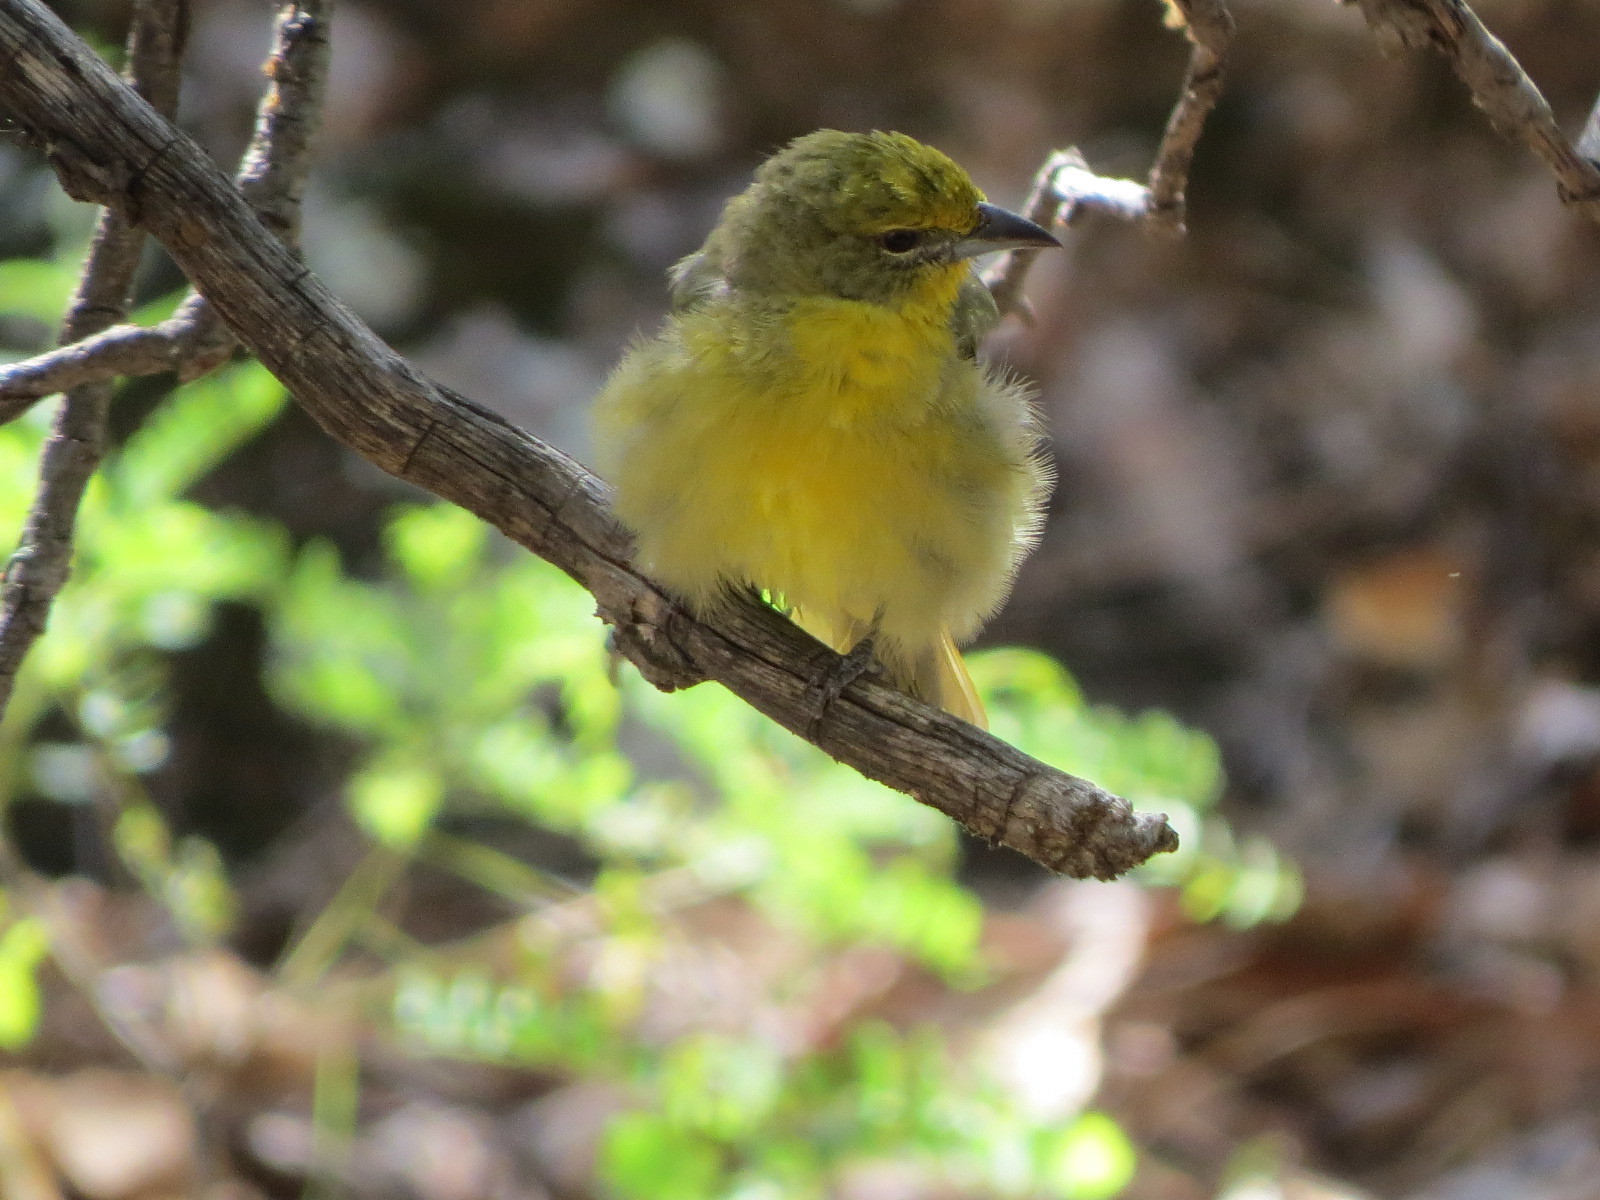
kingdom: Animalia
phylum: Chordata
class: Aves
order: Passeriformes
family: Cardinalidae
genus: Piranga
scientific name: Piranga flava
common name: Red tanager
